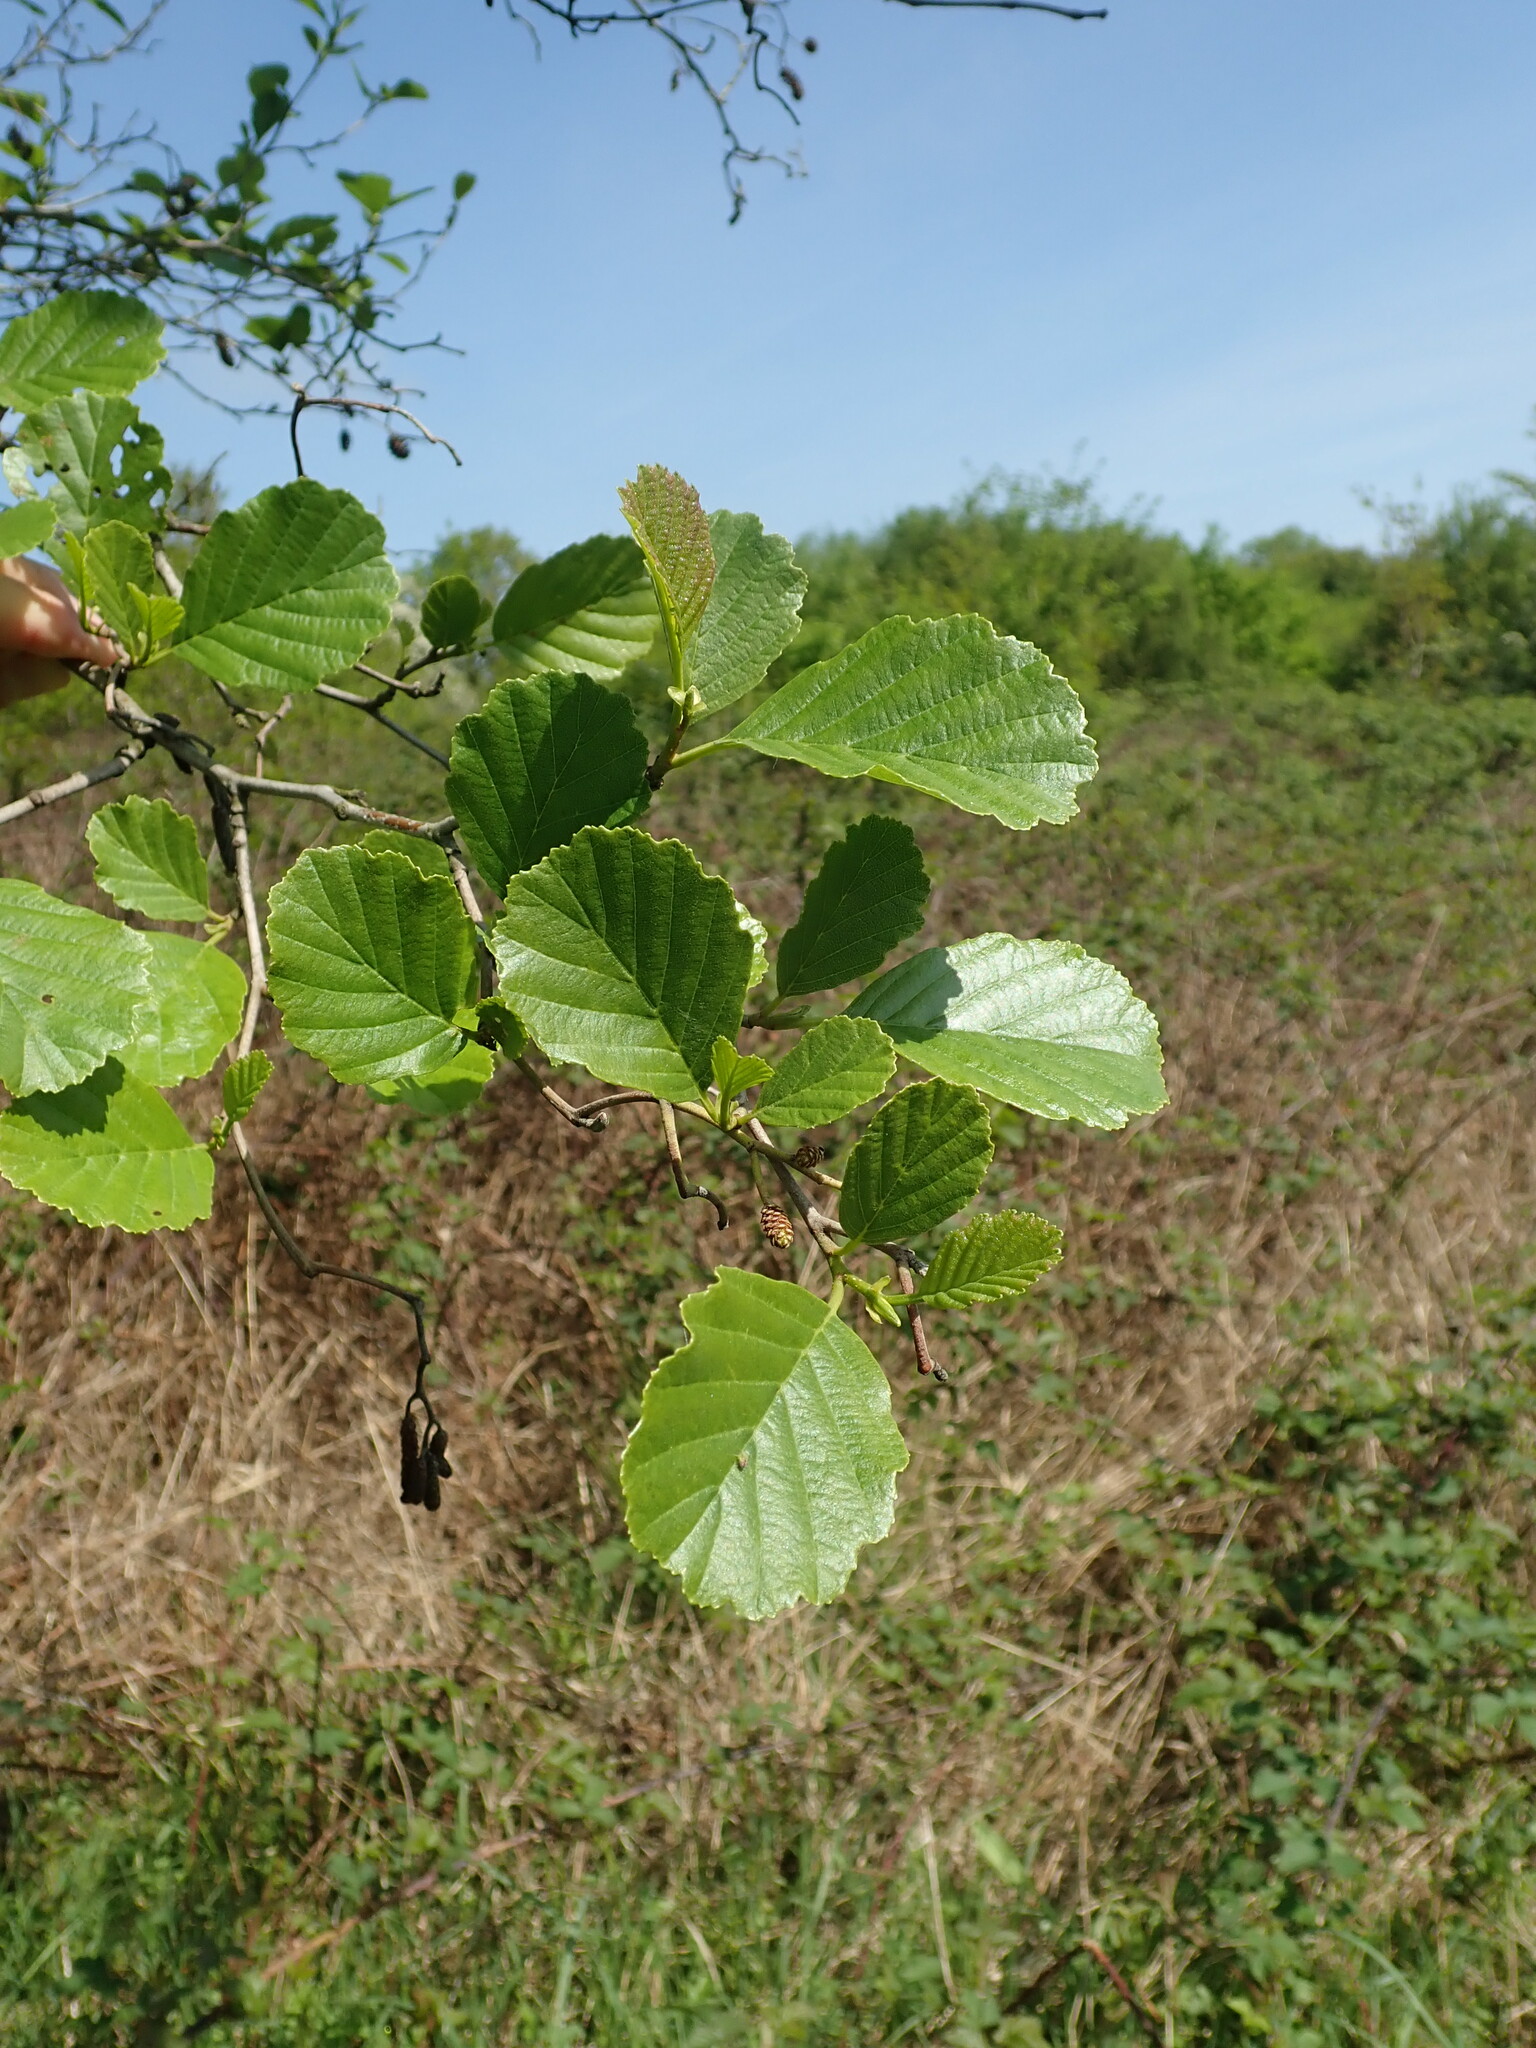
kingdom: Plantae
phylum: Tracheophyta
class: Magnoliopsida
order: Fagales
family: Betulaceae
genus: Alnus
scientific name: Alnus glutinosa
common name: Black alder
